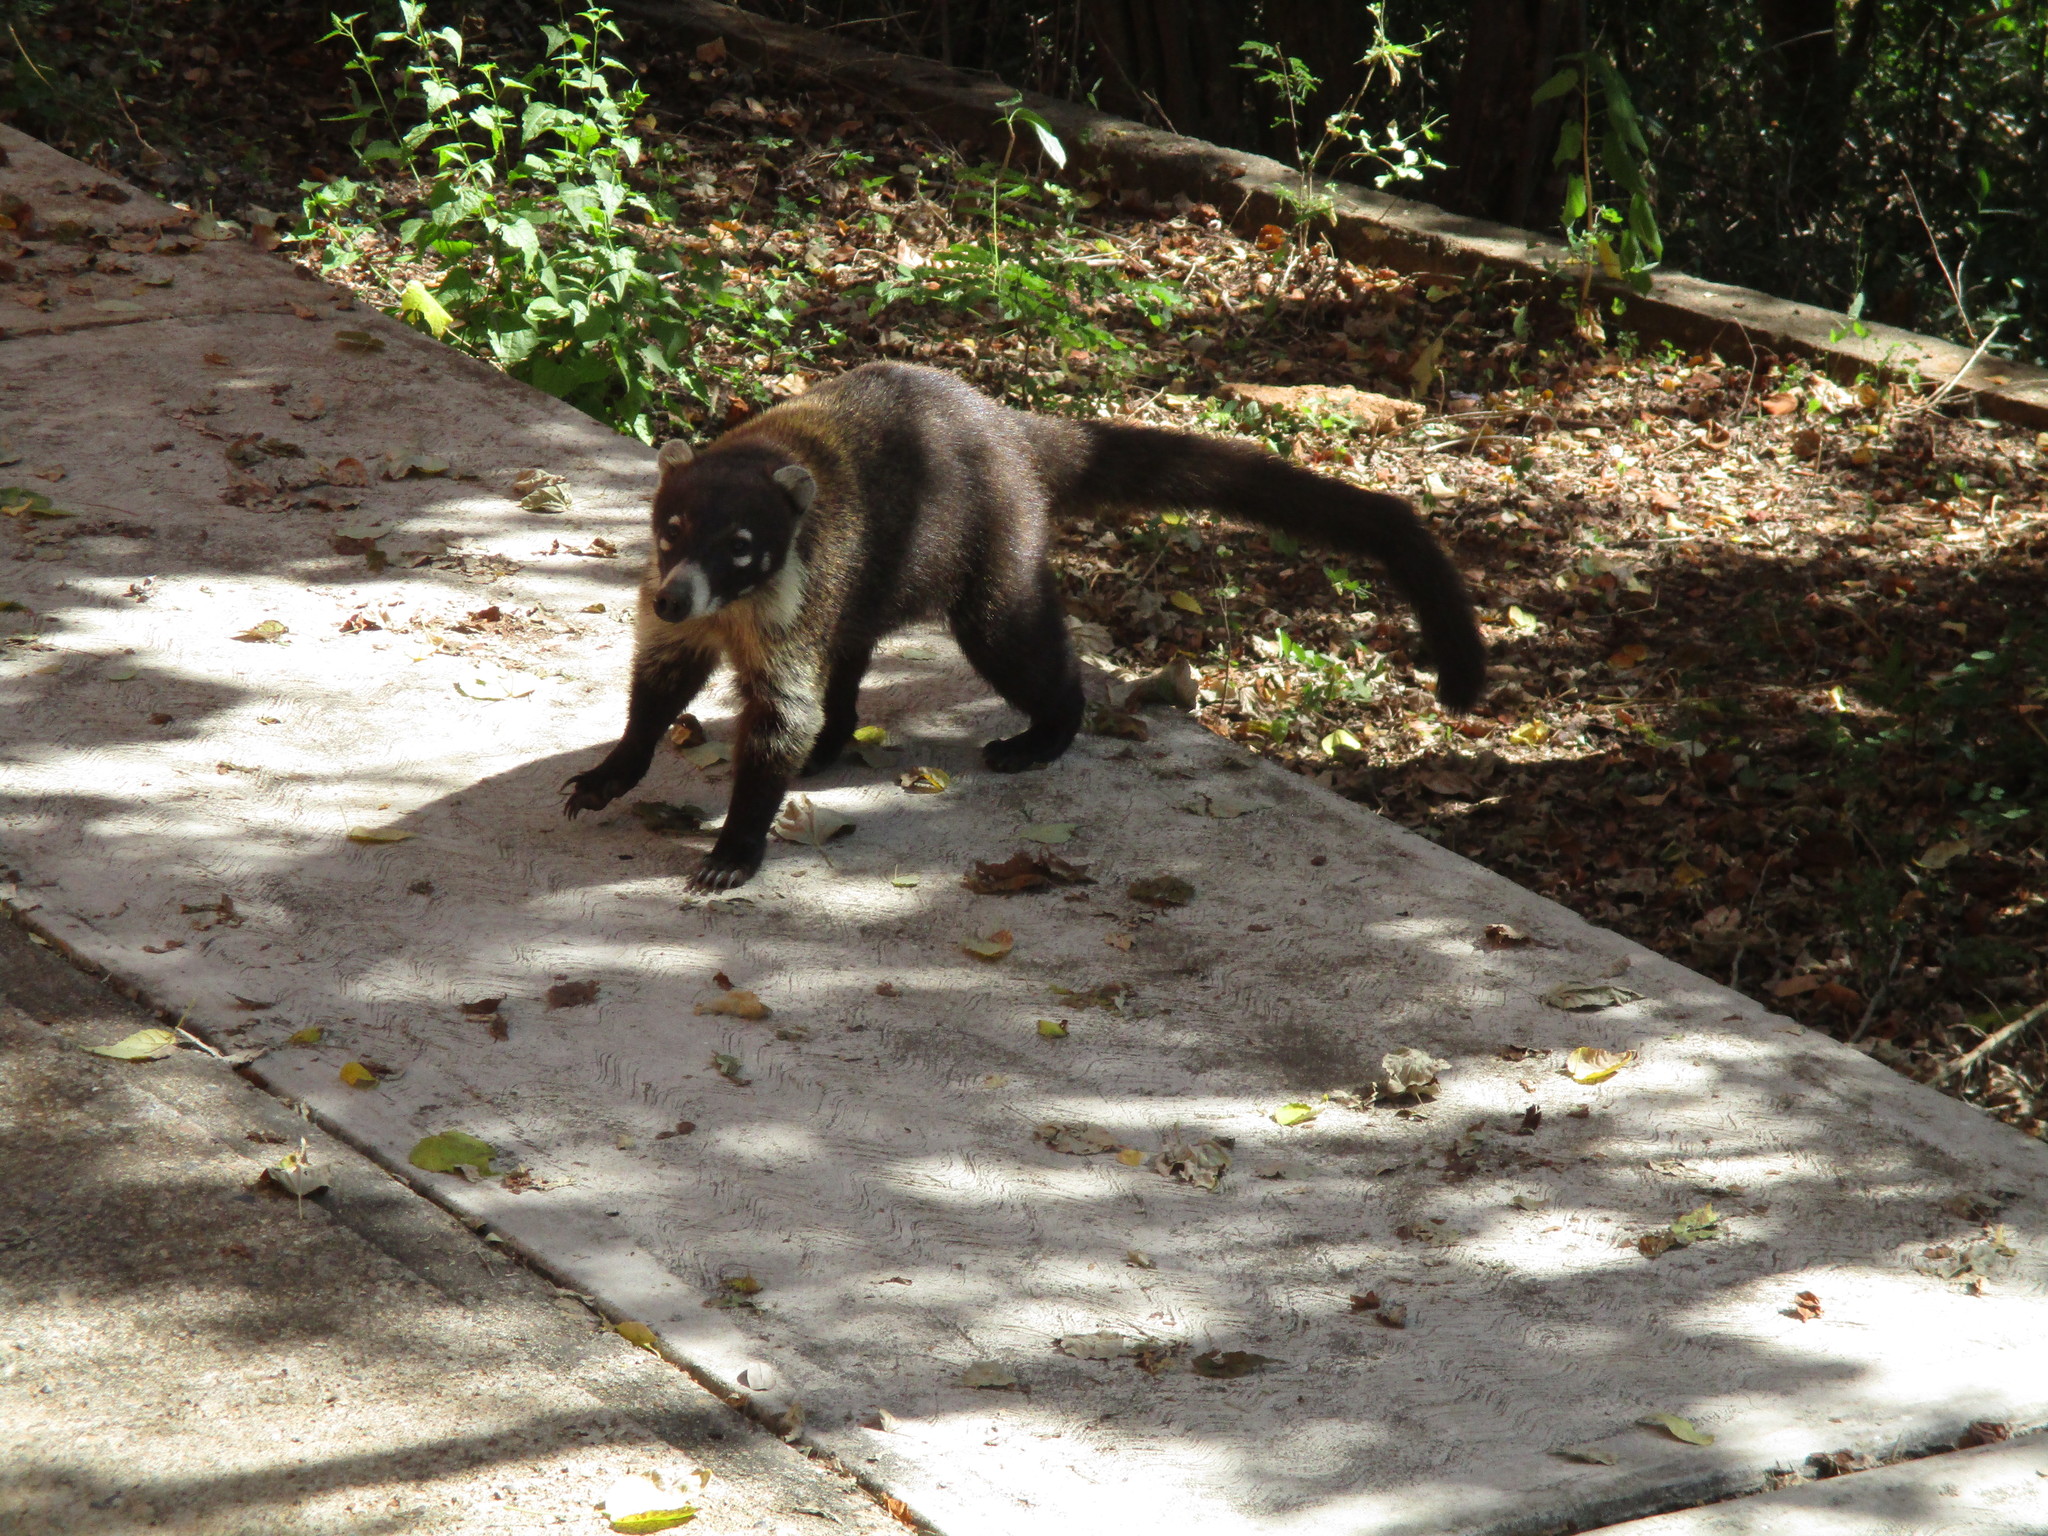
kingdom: Animalia
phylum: Chordata
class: Mammalia
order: Carnivora
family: Procyonidae
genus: Nasua
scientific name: Nasua narica
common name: White-nosed coati
